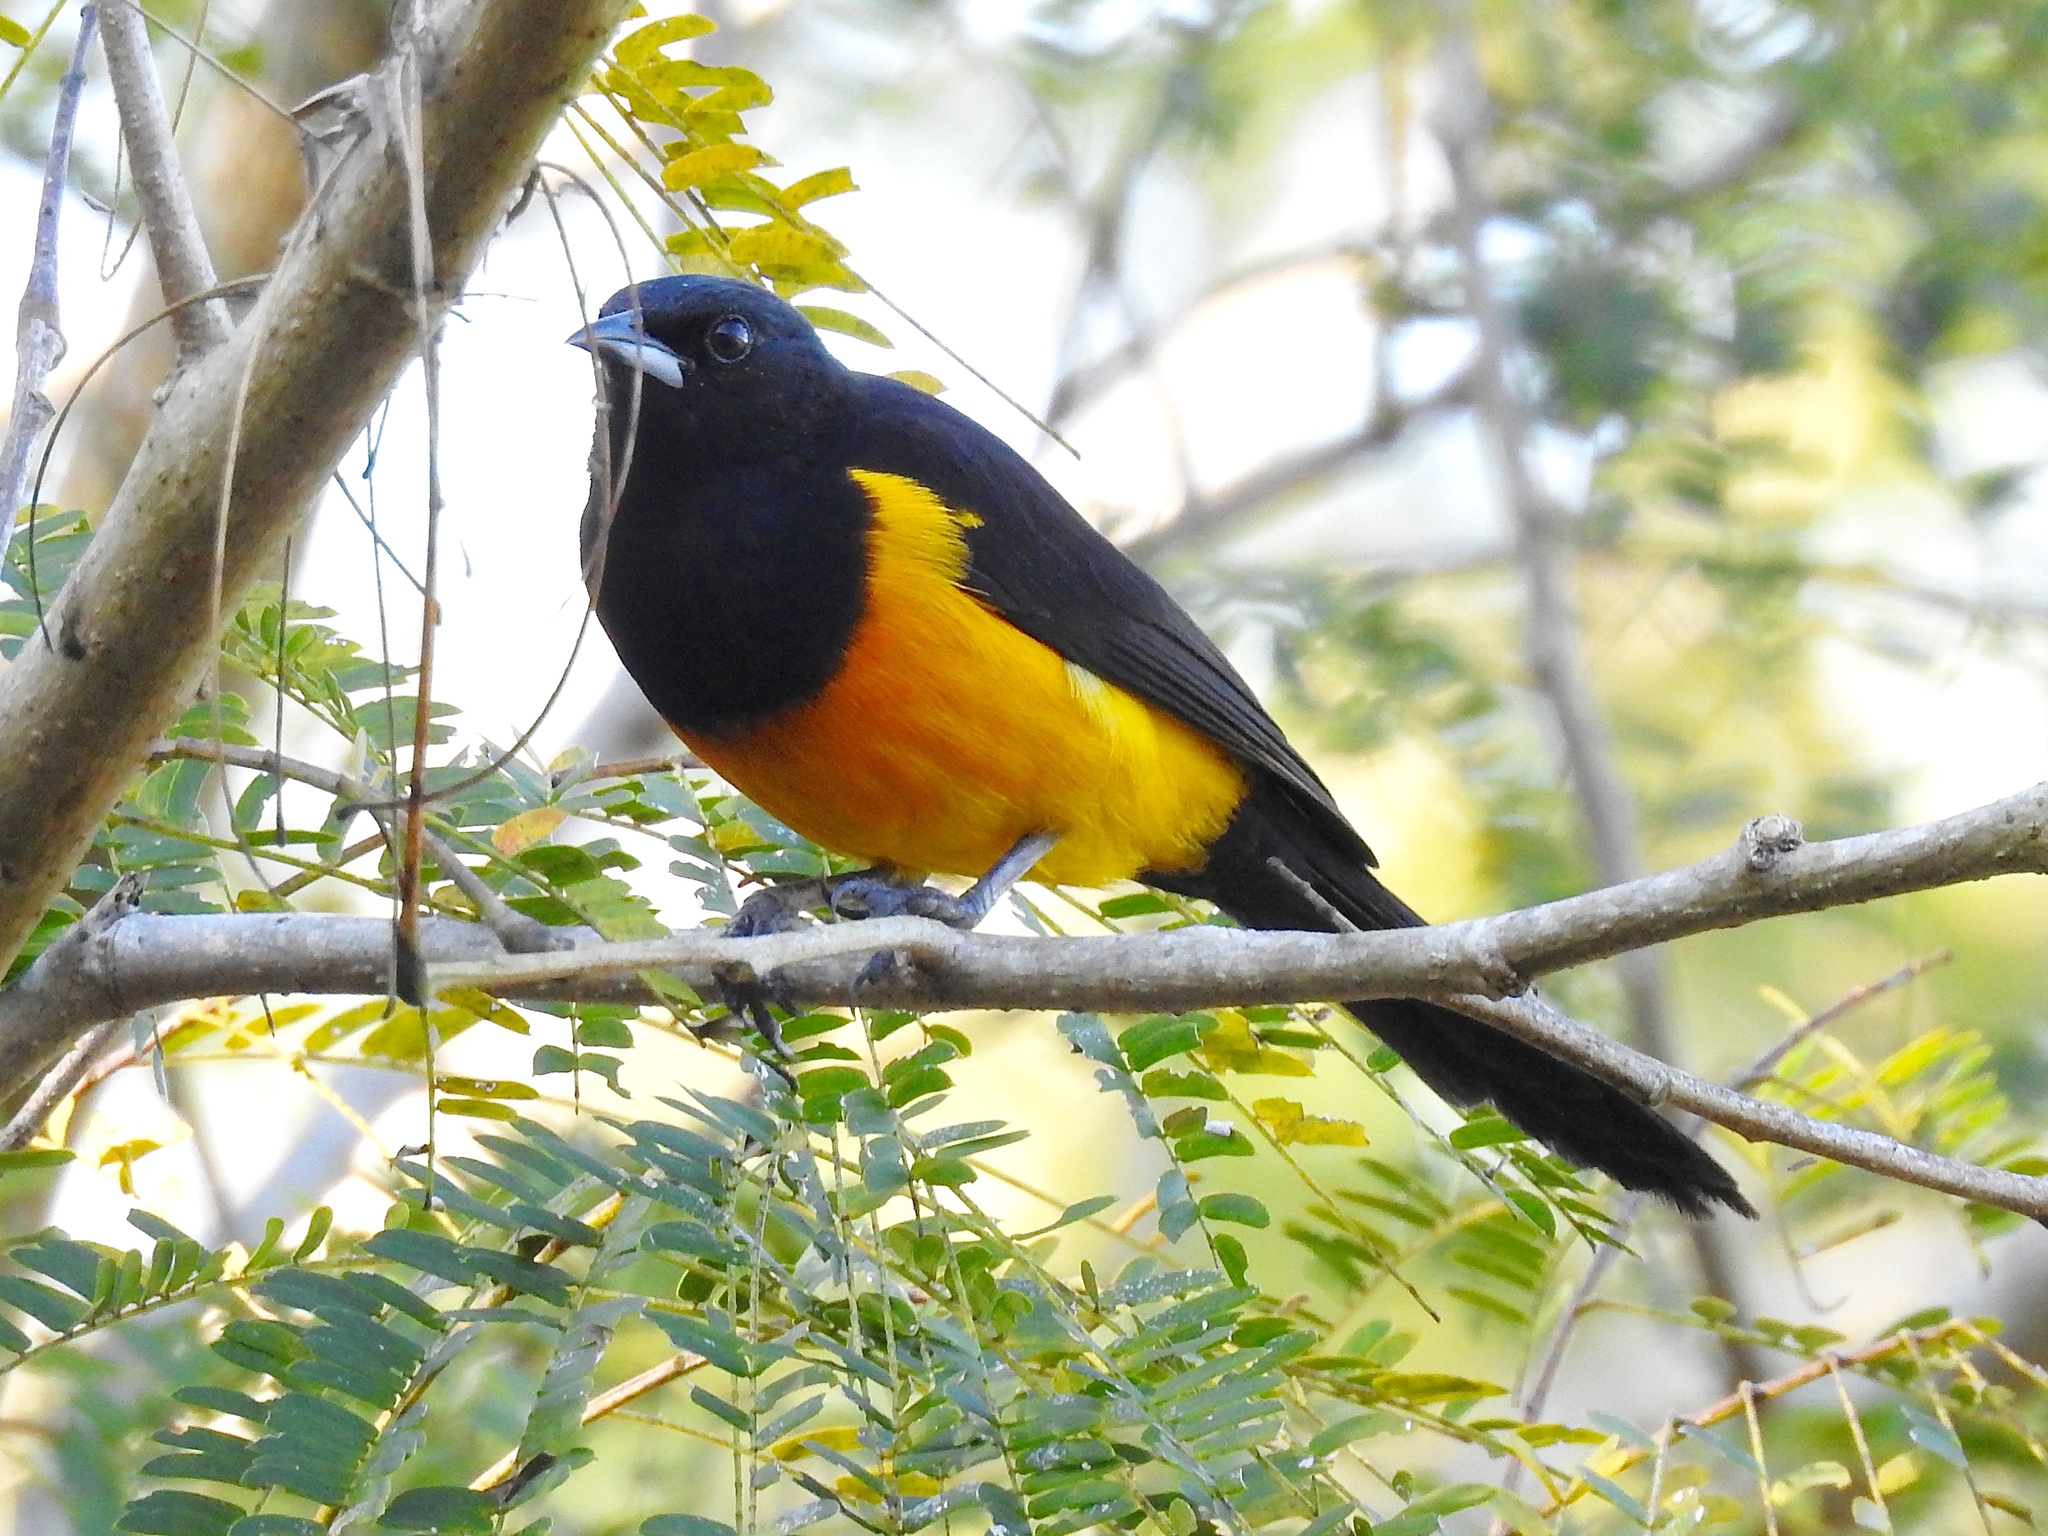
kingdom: Animalia
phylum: Chordata
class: Aves
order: Passeriformes
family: Icteridae
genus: Icterus
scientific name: Icterus wagleri
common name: Black-vented oriole
